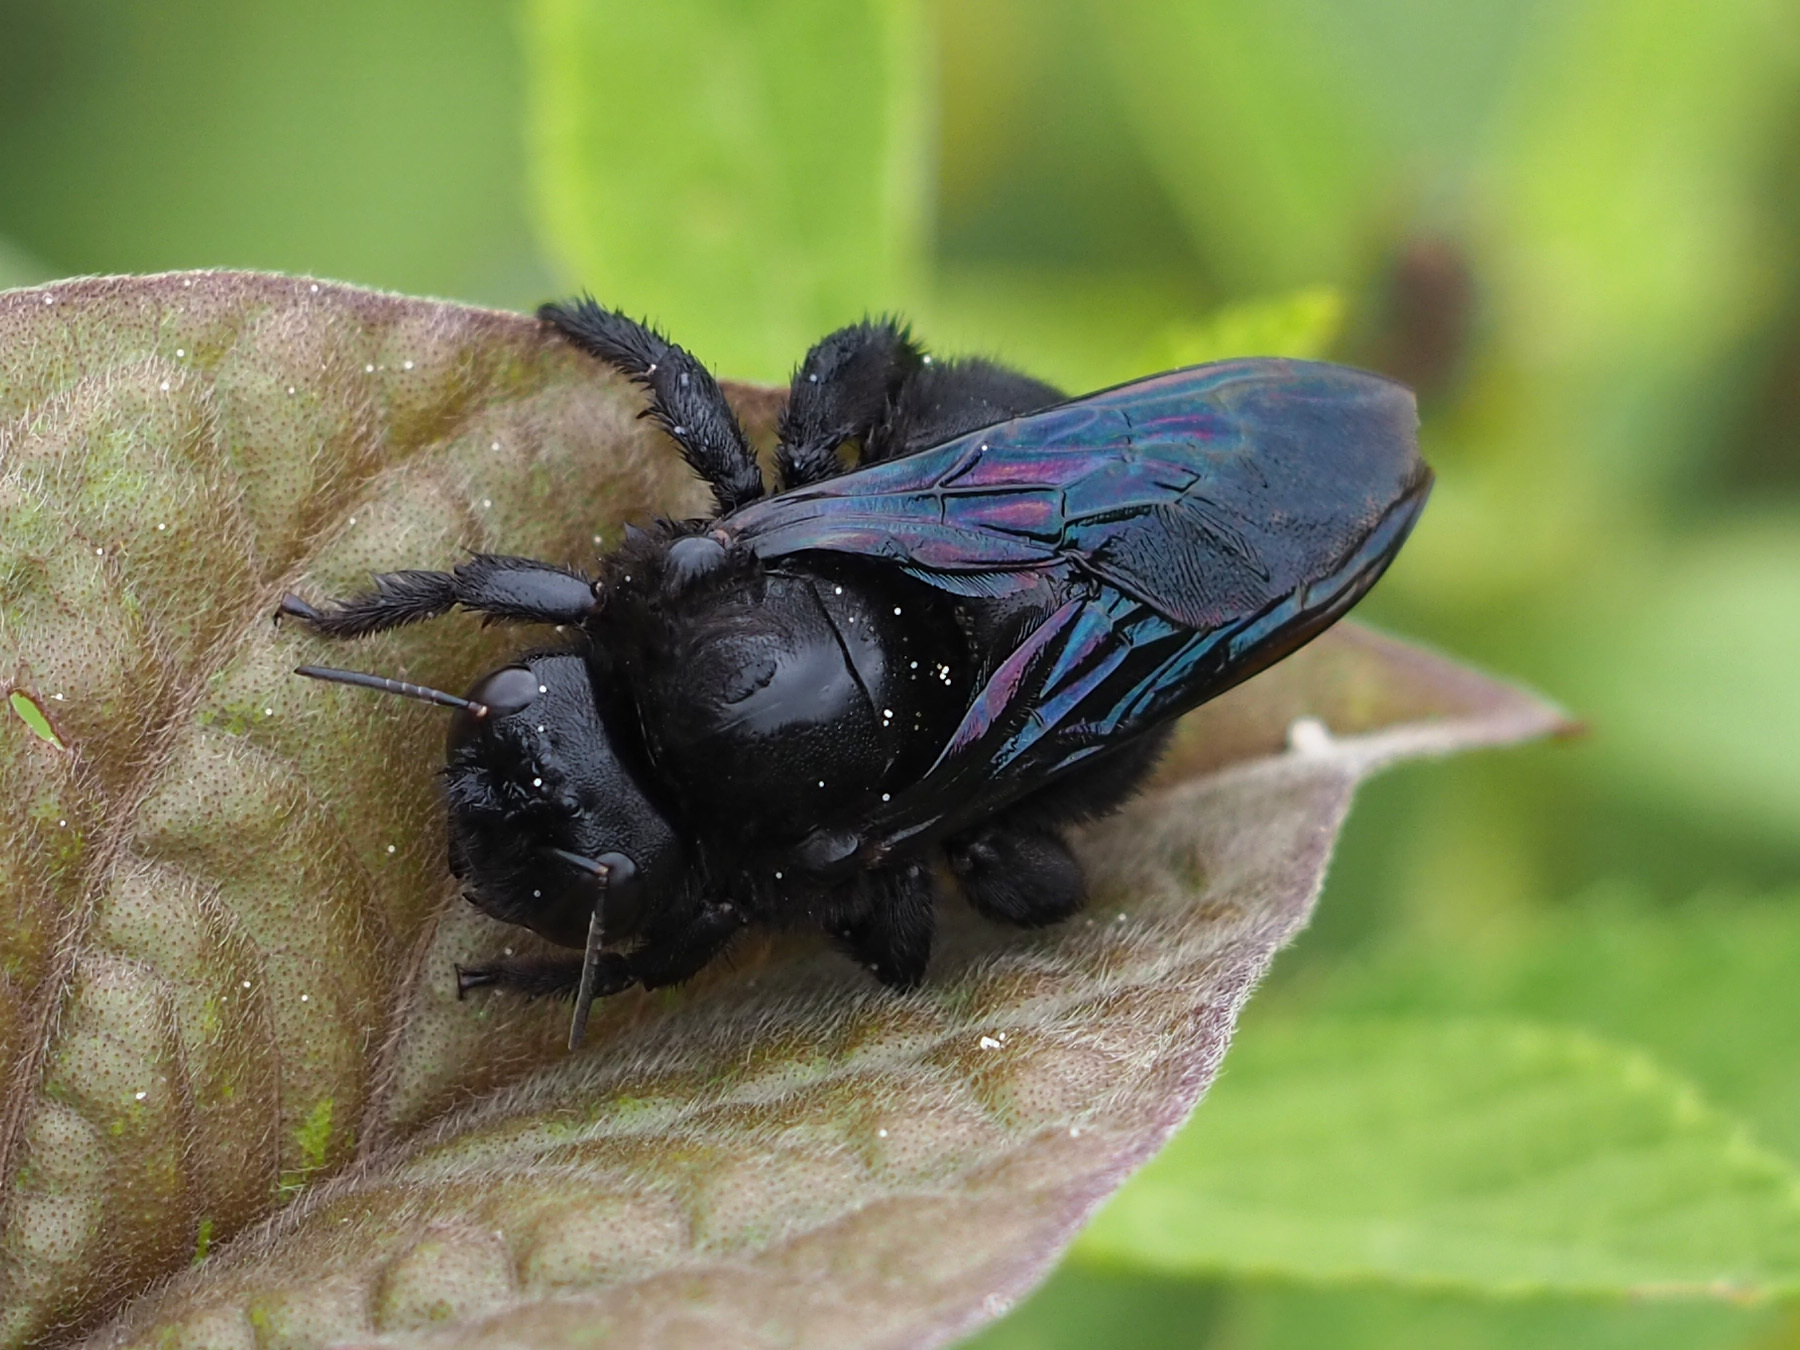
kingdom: Animalia
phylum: Arthropoda
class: Insecta
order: Hymenoptera
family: Apidae
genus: Xylocopa
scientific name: Xylocopa darwini
